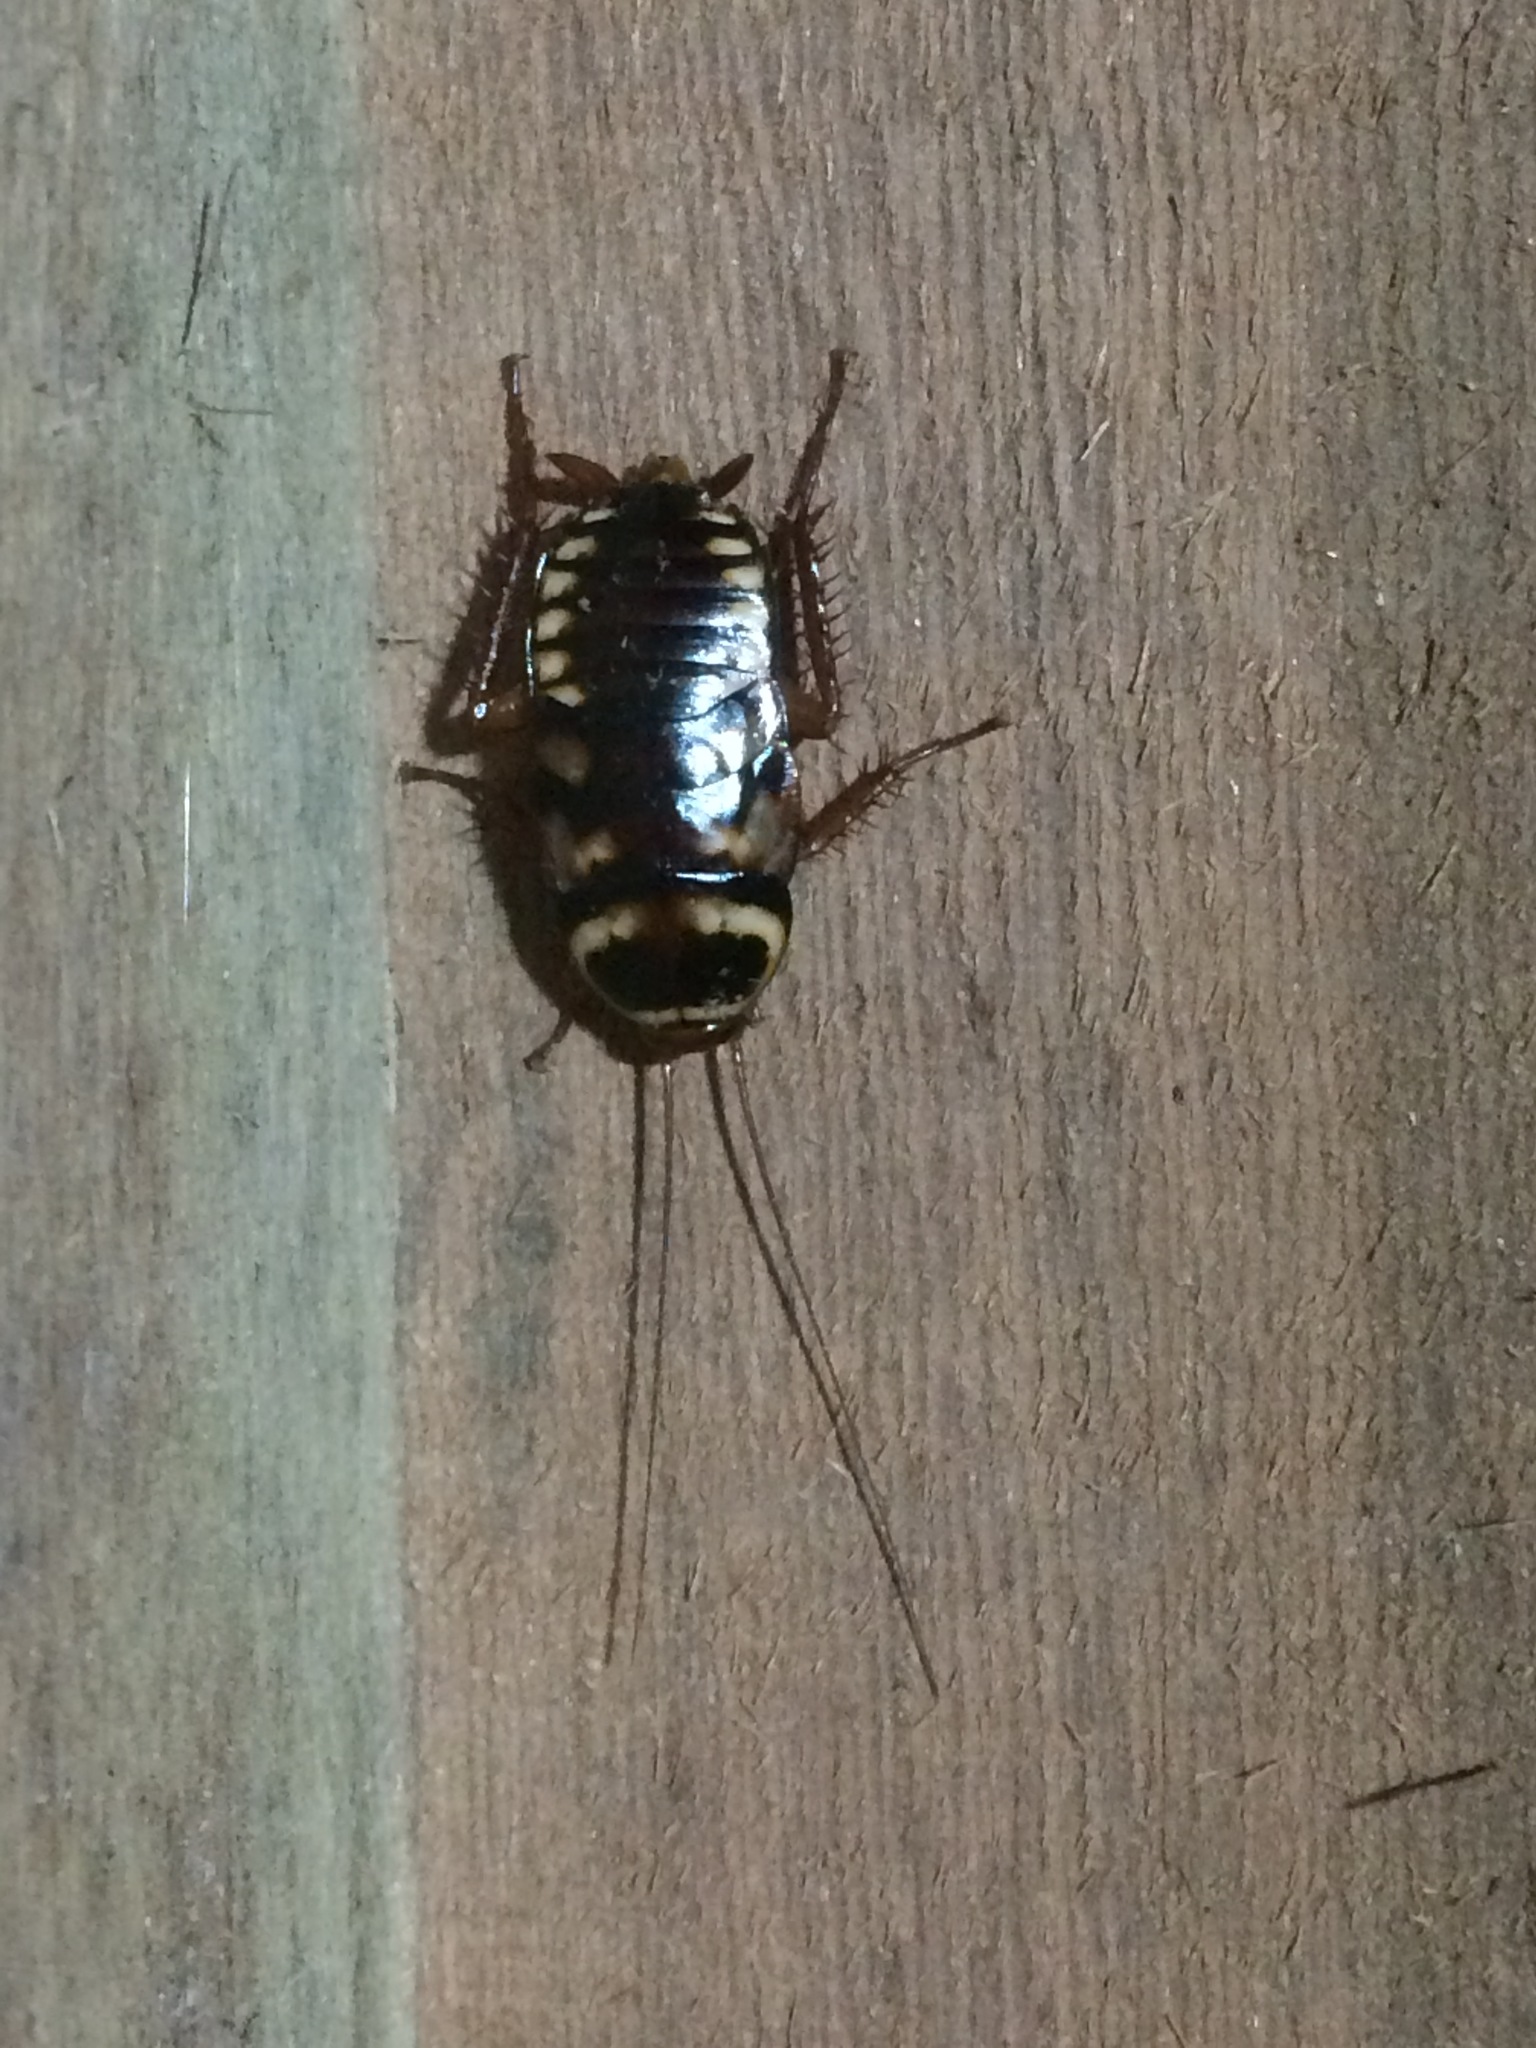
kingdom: Animalia
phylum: Arthropoda
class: Insecta
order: Blattodea
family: Blattidae
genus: Periplaneta
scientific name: Periplaneta australasiae
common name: Australian cockroach
